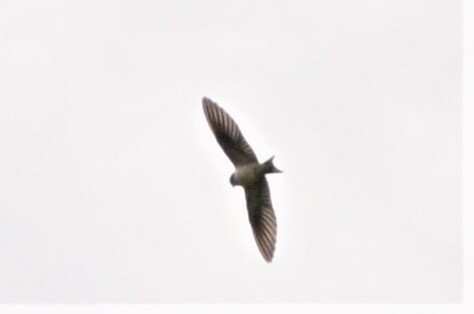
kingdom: Animalia
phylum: Chordata
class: Aves
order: Passeriformes
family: Hirundinidae
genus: Ptyonoprogne
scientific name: Ptyonoprogne rupestris
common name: Eurasian crag martin
